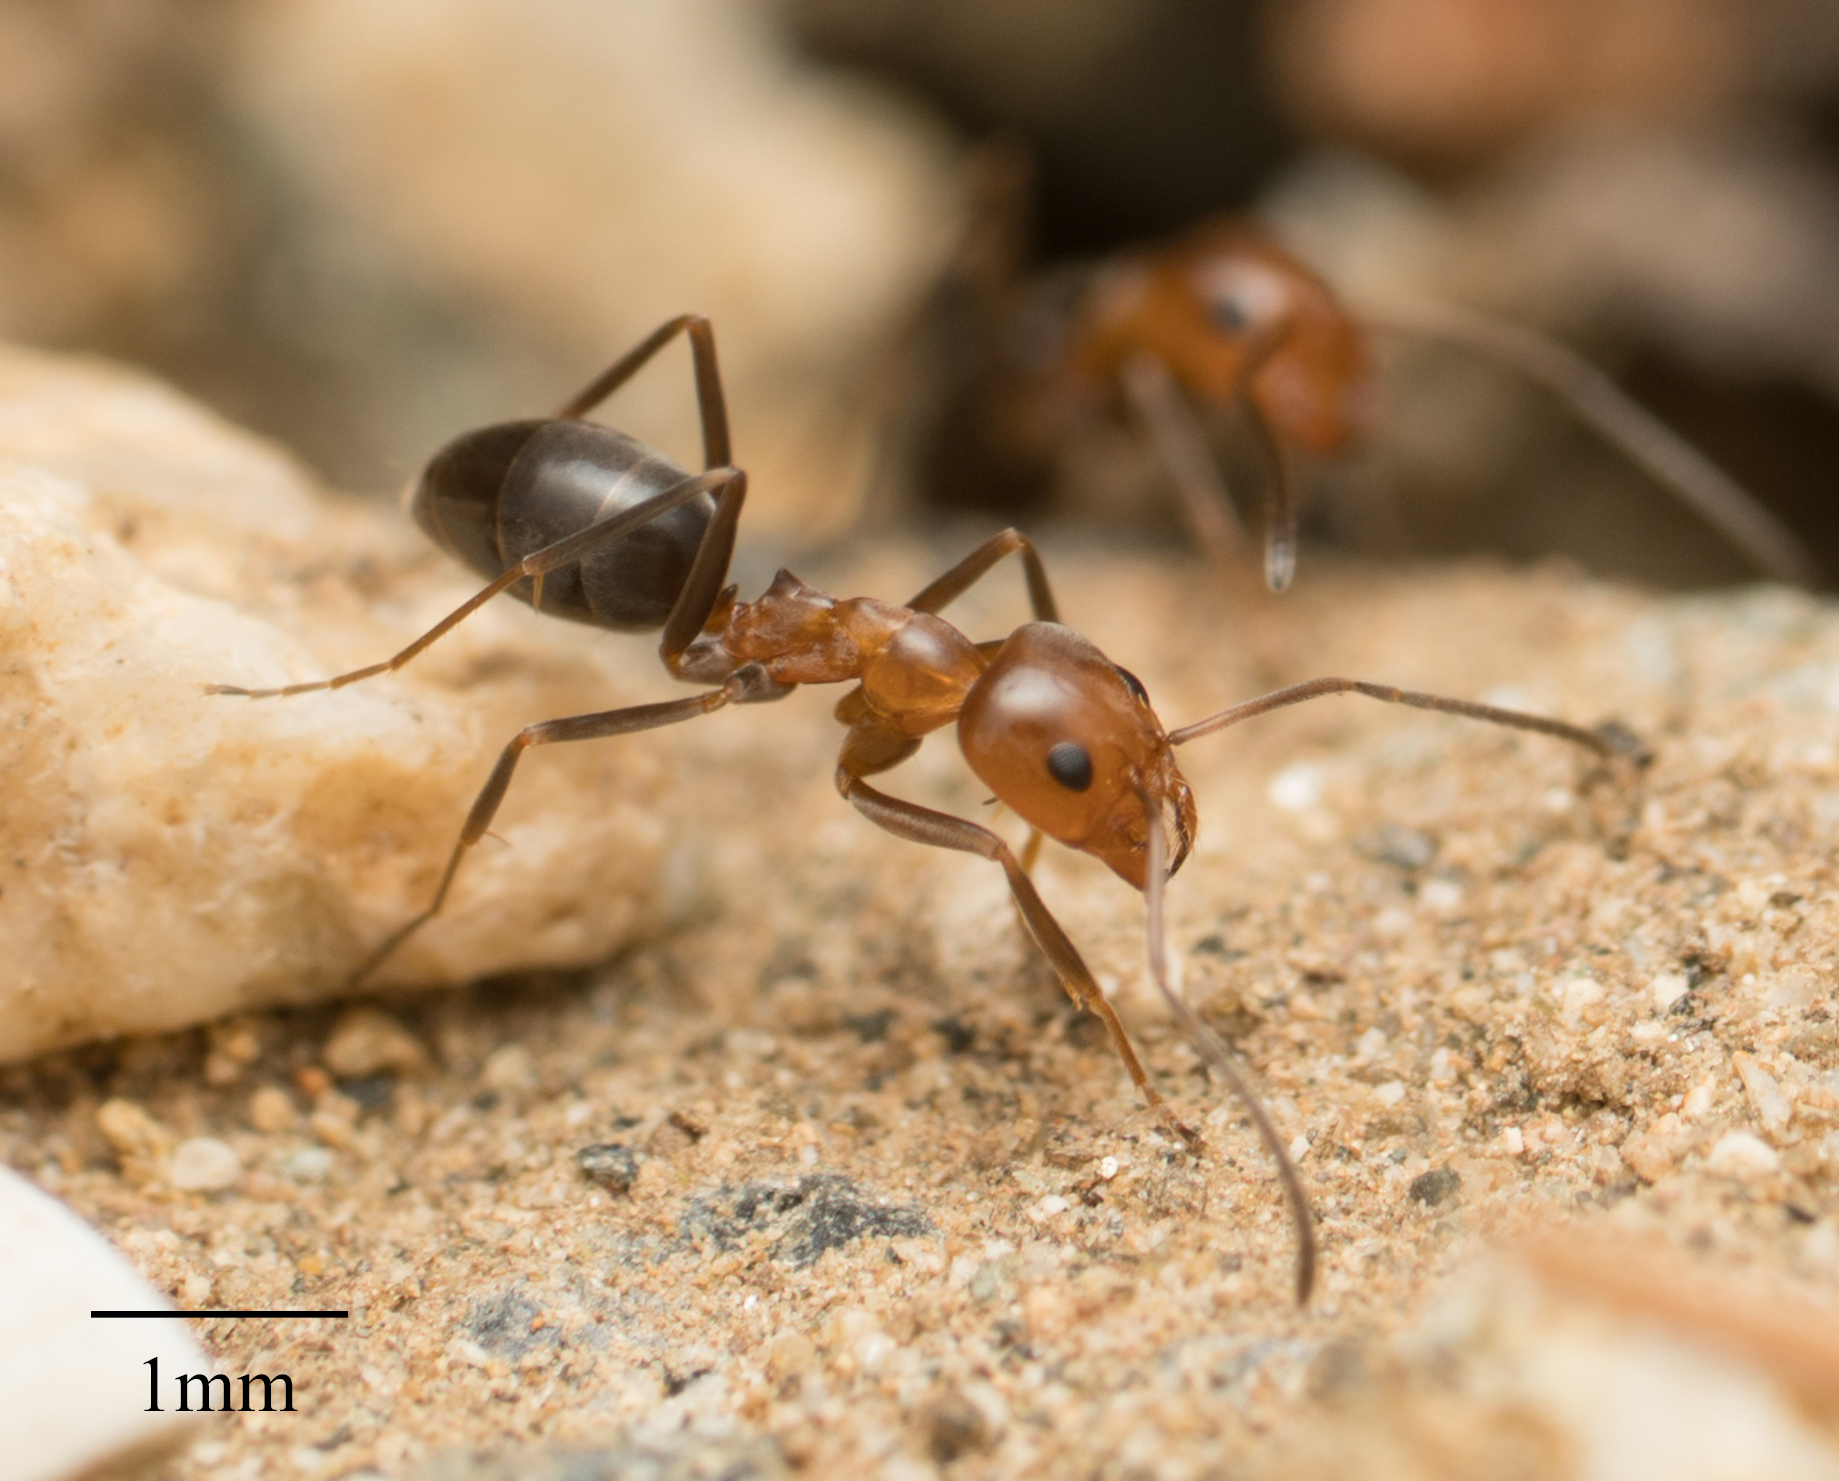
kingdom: Animalia
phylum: Arthropoda
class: Insecta
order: Hymenoptera
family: Formicidae
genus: Dorymyrmex
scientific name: Dorymyrmex bicolor
